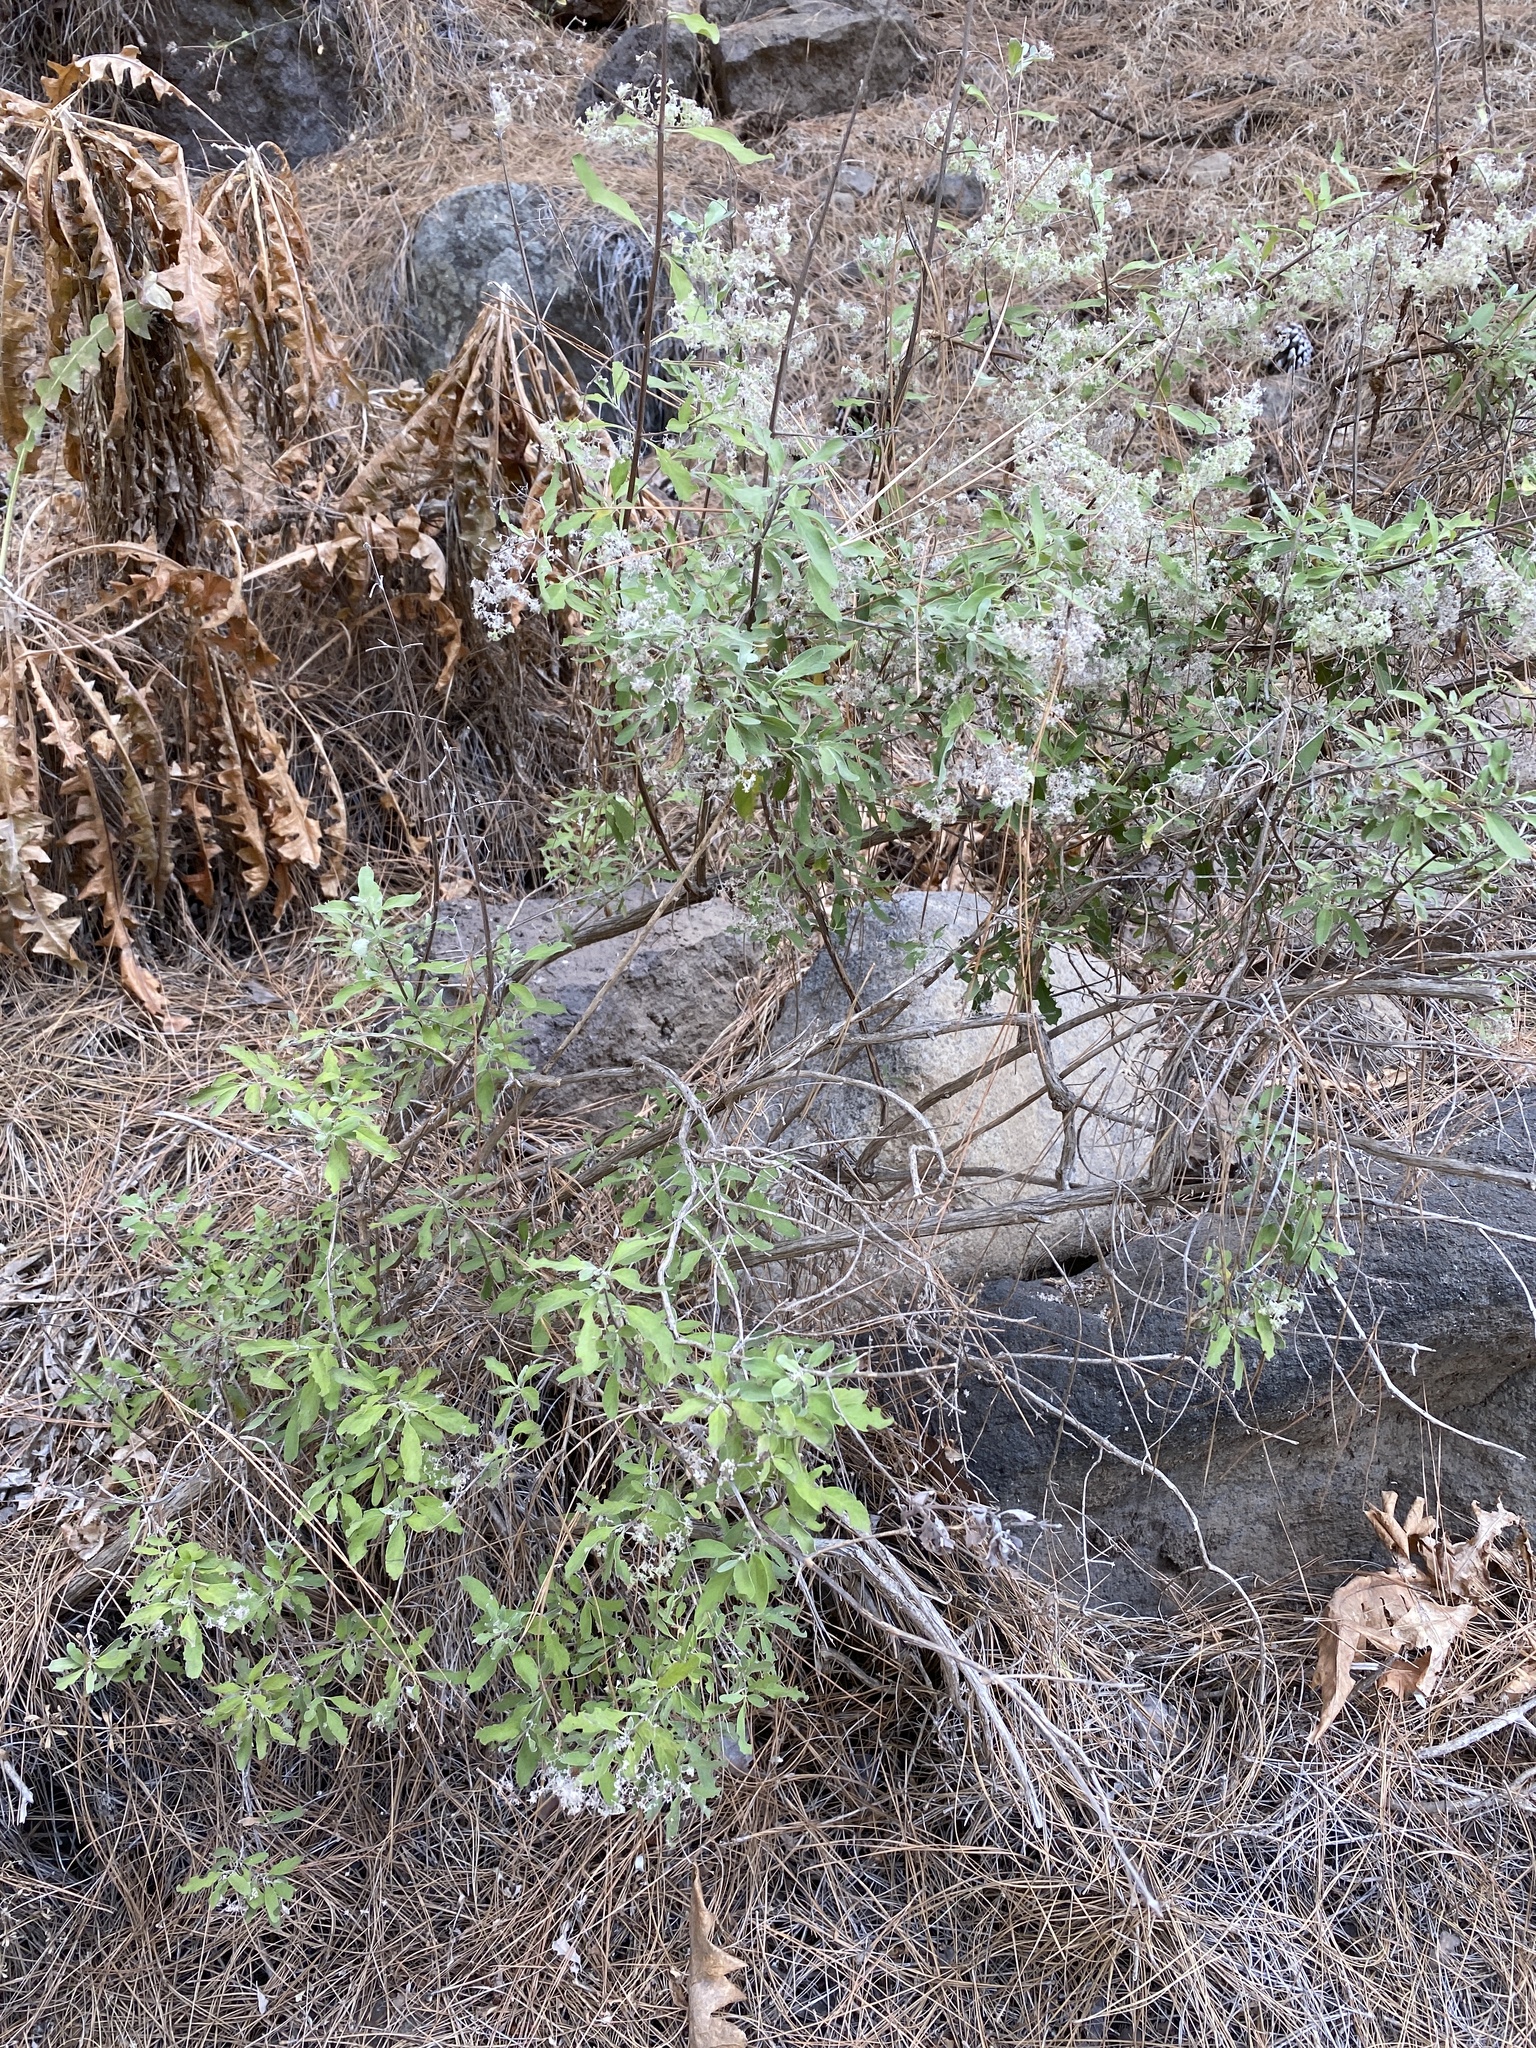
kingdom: Plantae
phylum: Tracheophyta
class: Magnoliopsida
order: Lamiales
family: Lamiaceae
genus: Bystropogon
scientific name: Bystropogon origanifolius
